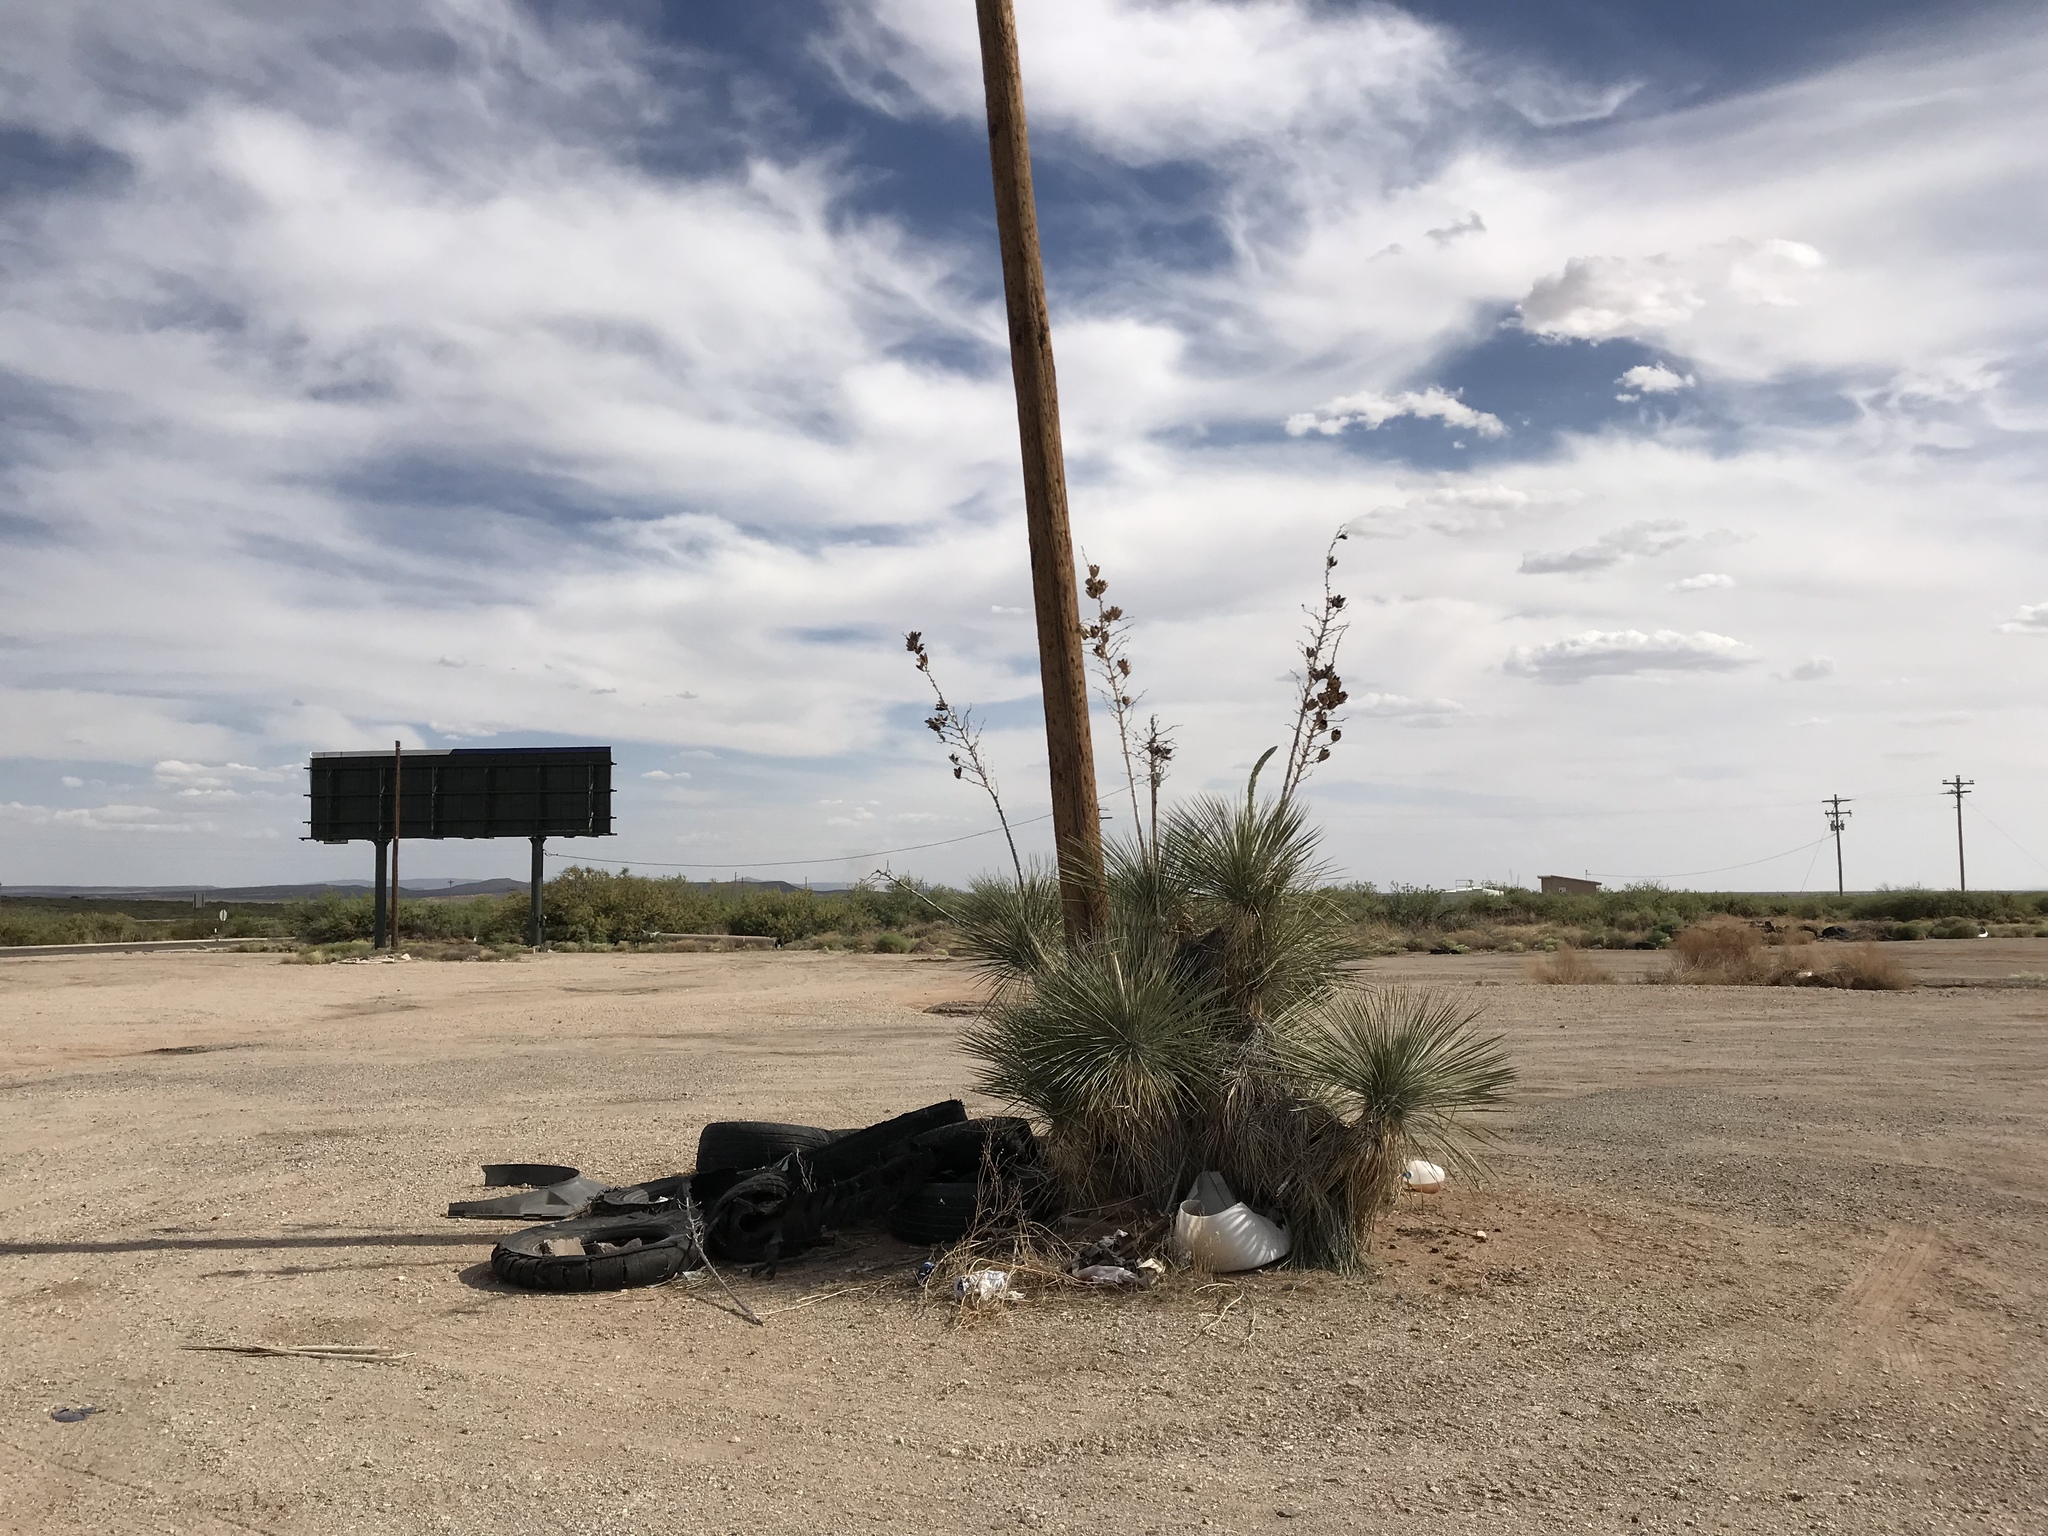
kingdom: Plantae
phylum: Tracheophyta
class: Liliopsida
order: Asparagales
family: Asparagaceae
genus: Yucca
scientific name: Yucca elata
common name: Palmella
